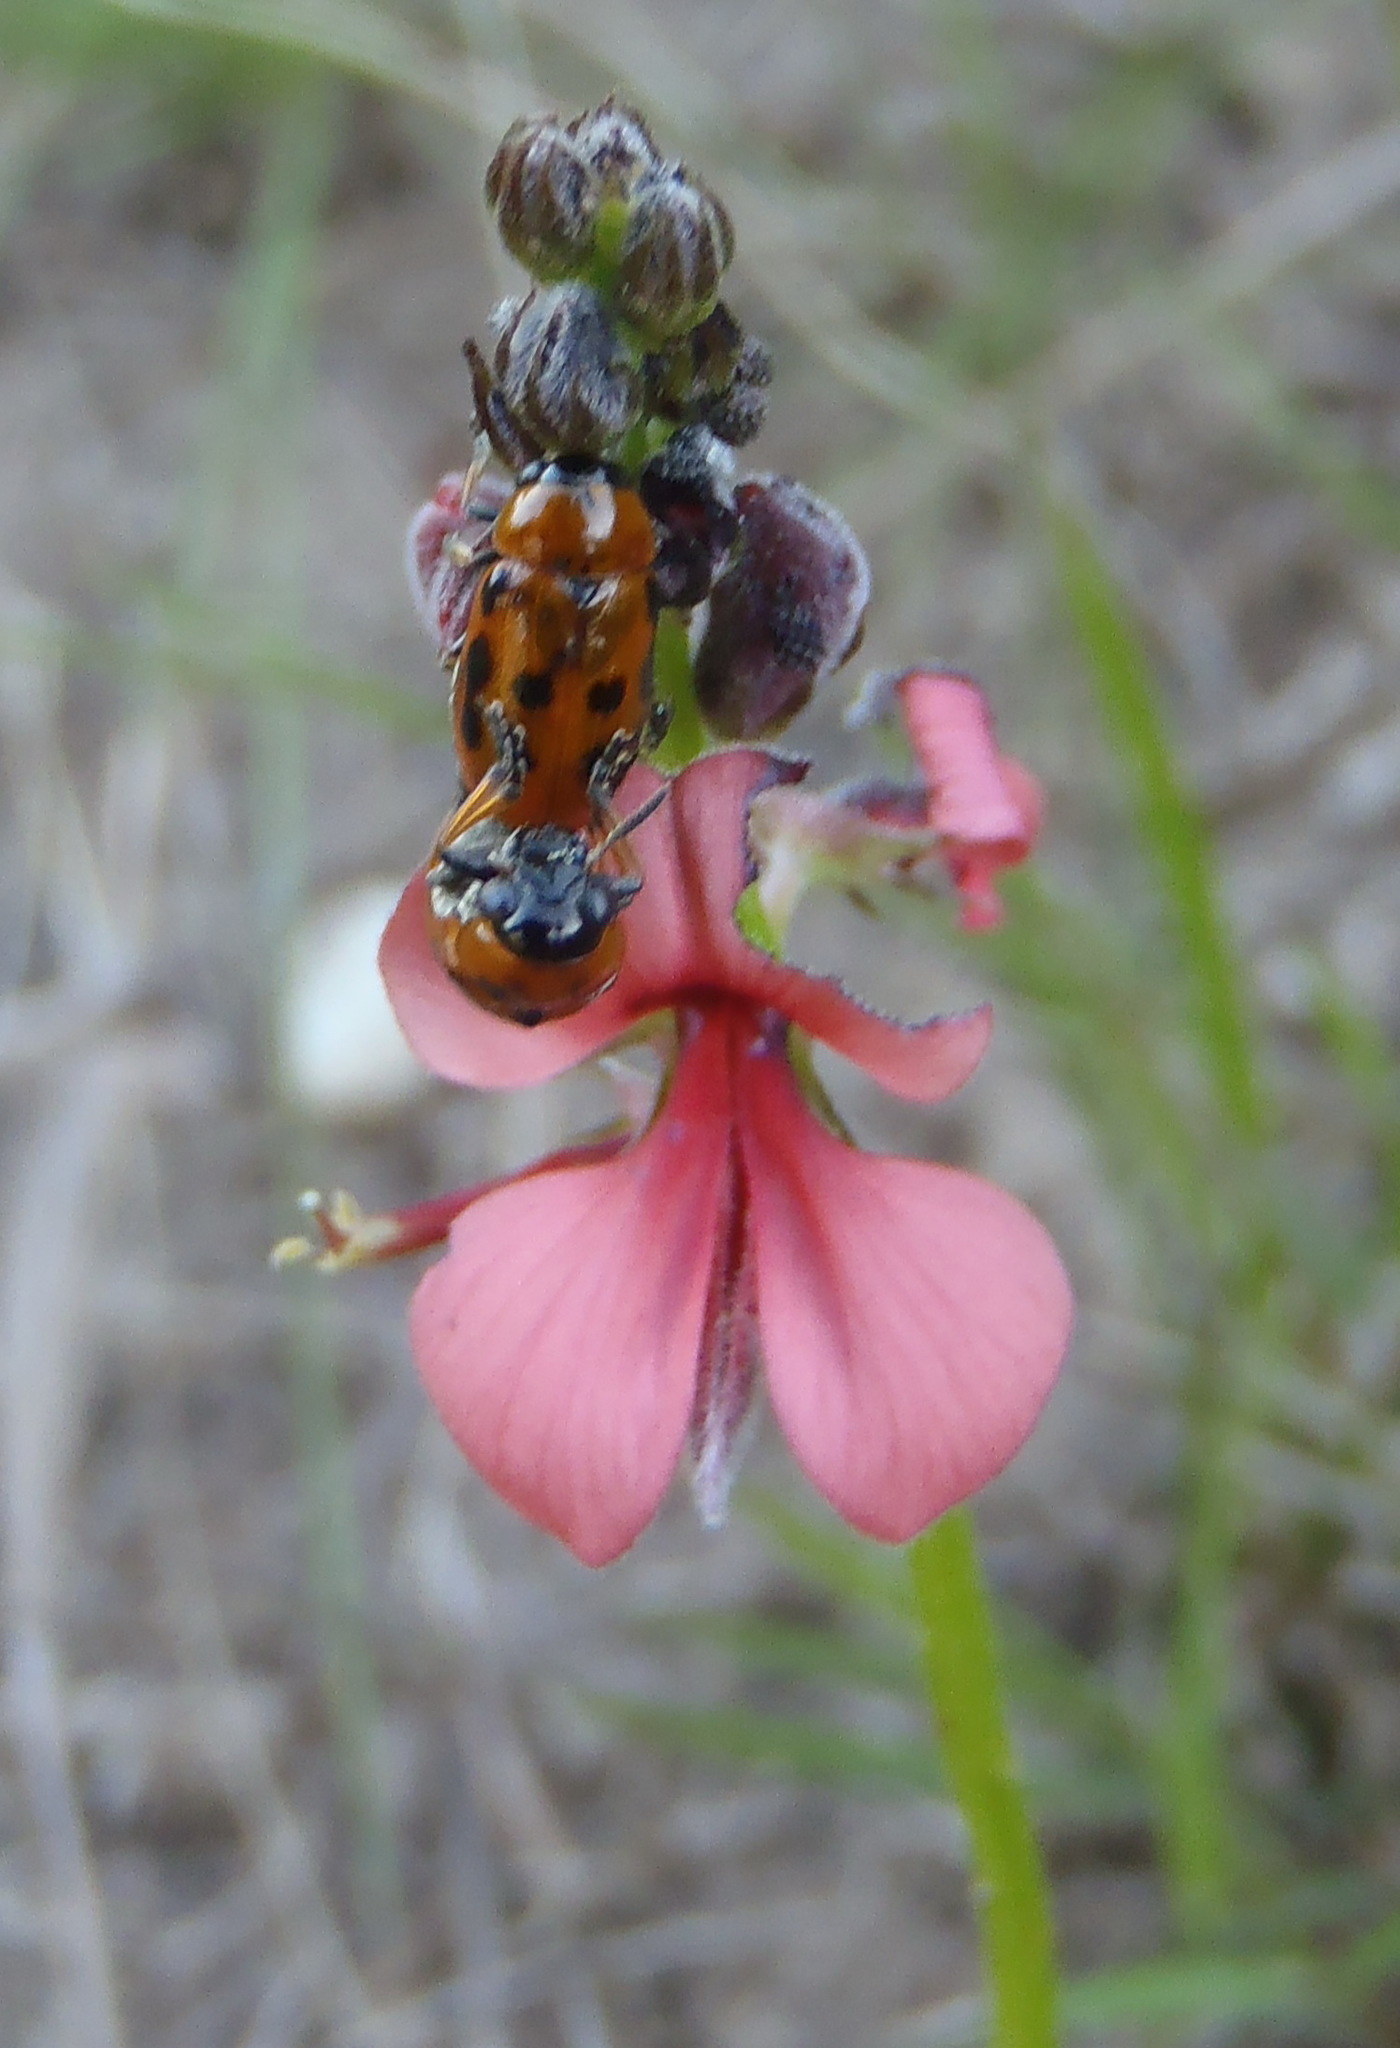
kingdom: Plantae
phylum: Tracheophyta
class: Magnoliopsida
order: Fabales
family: Fabaceae
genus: Indigofera
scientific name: Indigofera heterophylla
